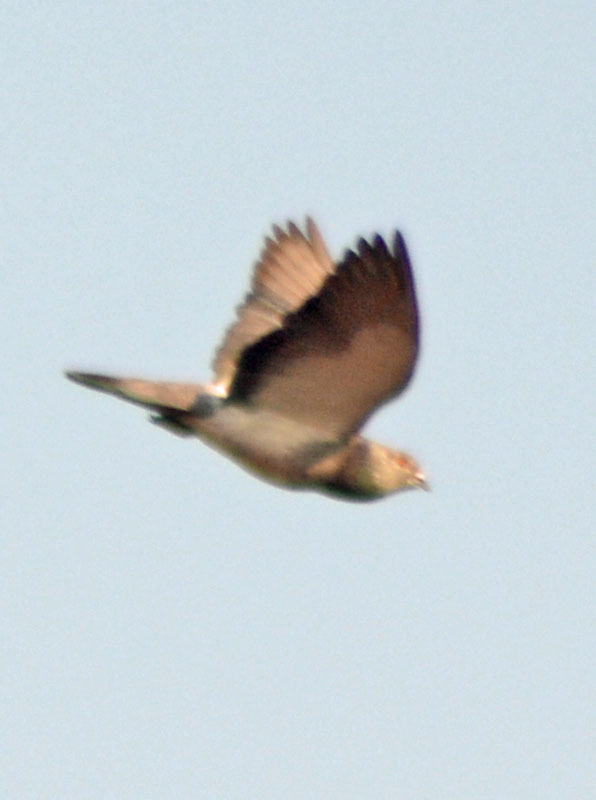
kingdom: Animalia
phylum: Chordata
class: Aves
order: Columbiformes
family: Columbidae
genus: Columba
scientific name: Columba livia
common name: Rock pigeon
